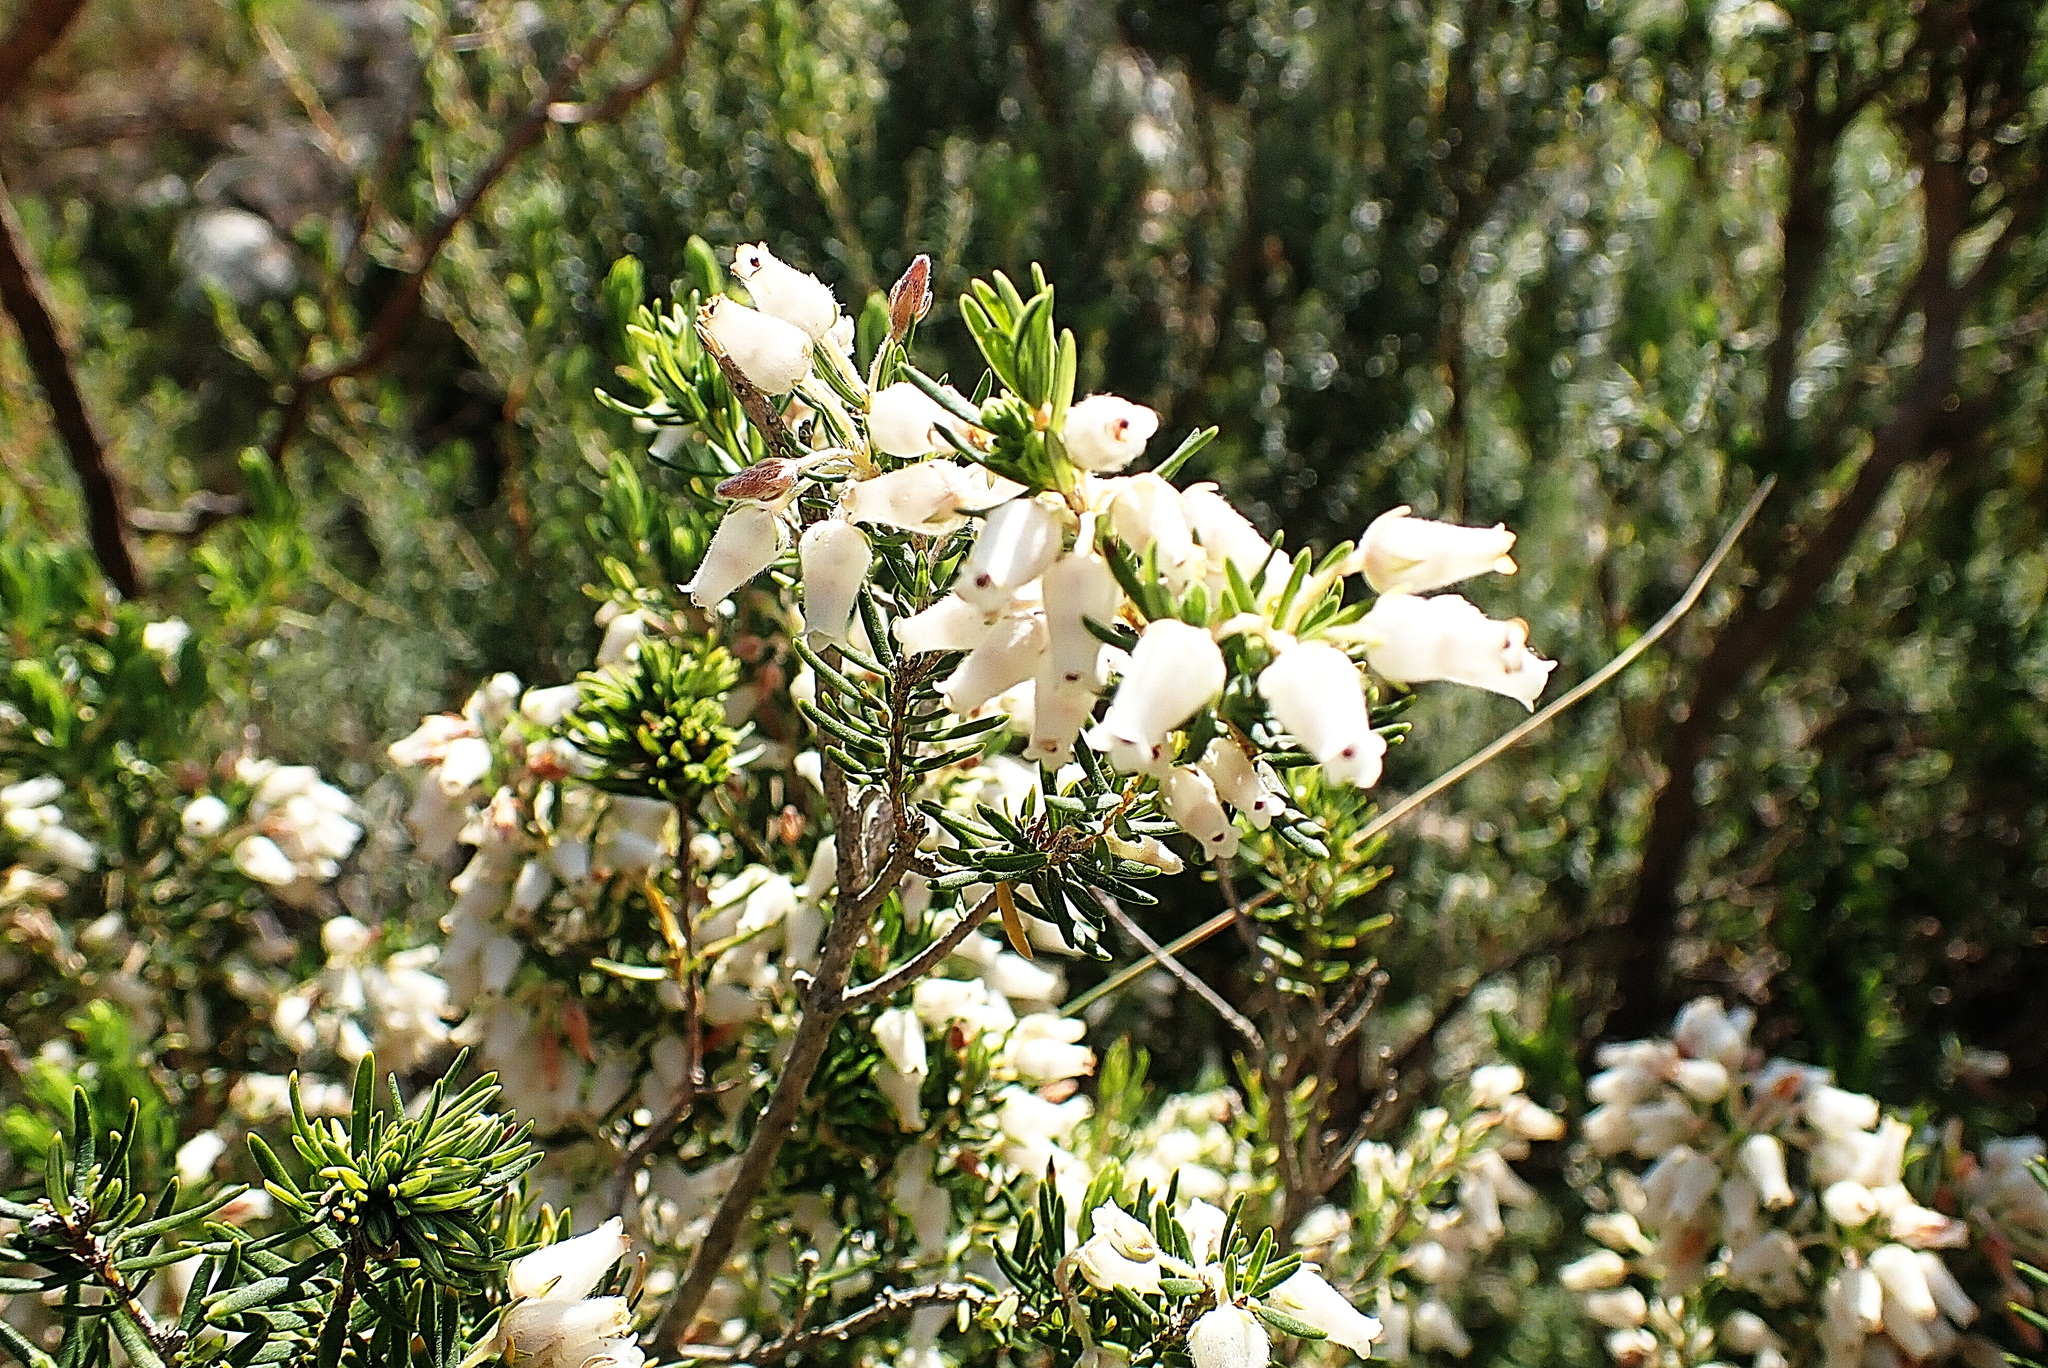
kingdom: Plantae
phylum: Tracheophyta
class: Magnoliopsida
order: Ericales
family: Ericaceae
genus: Erica
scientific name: Erica caffra
